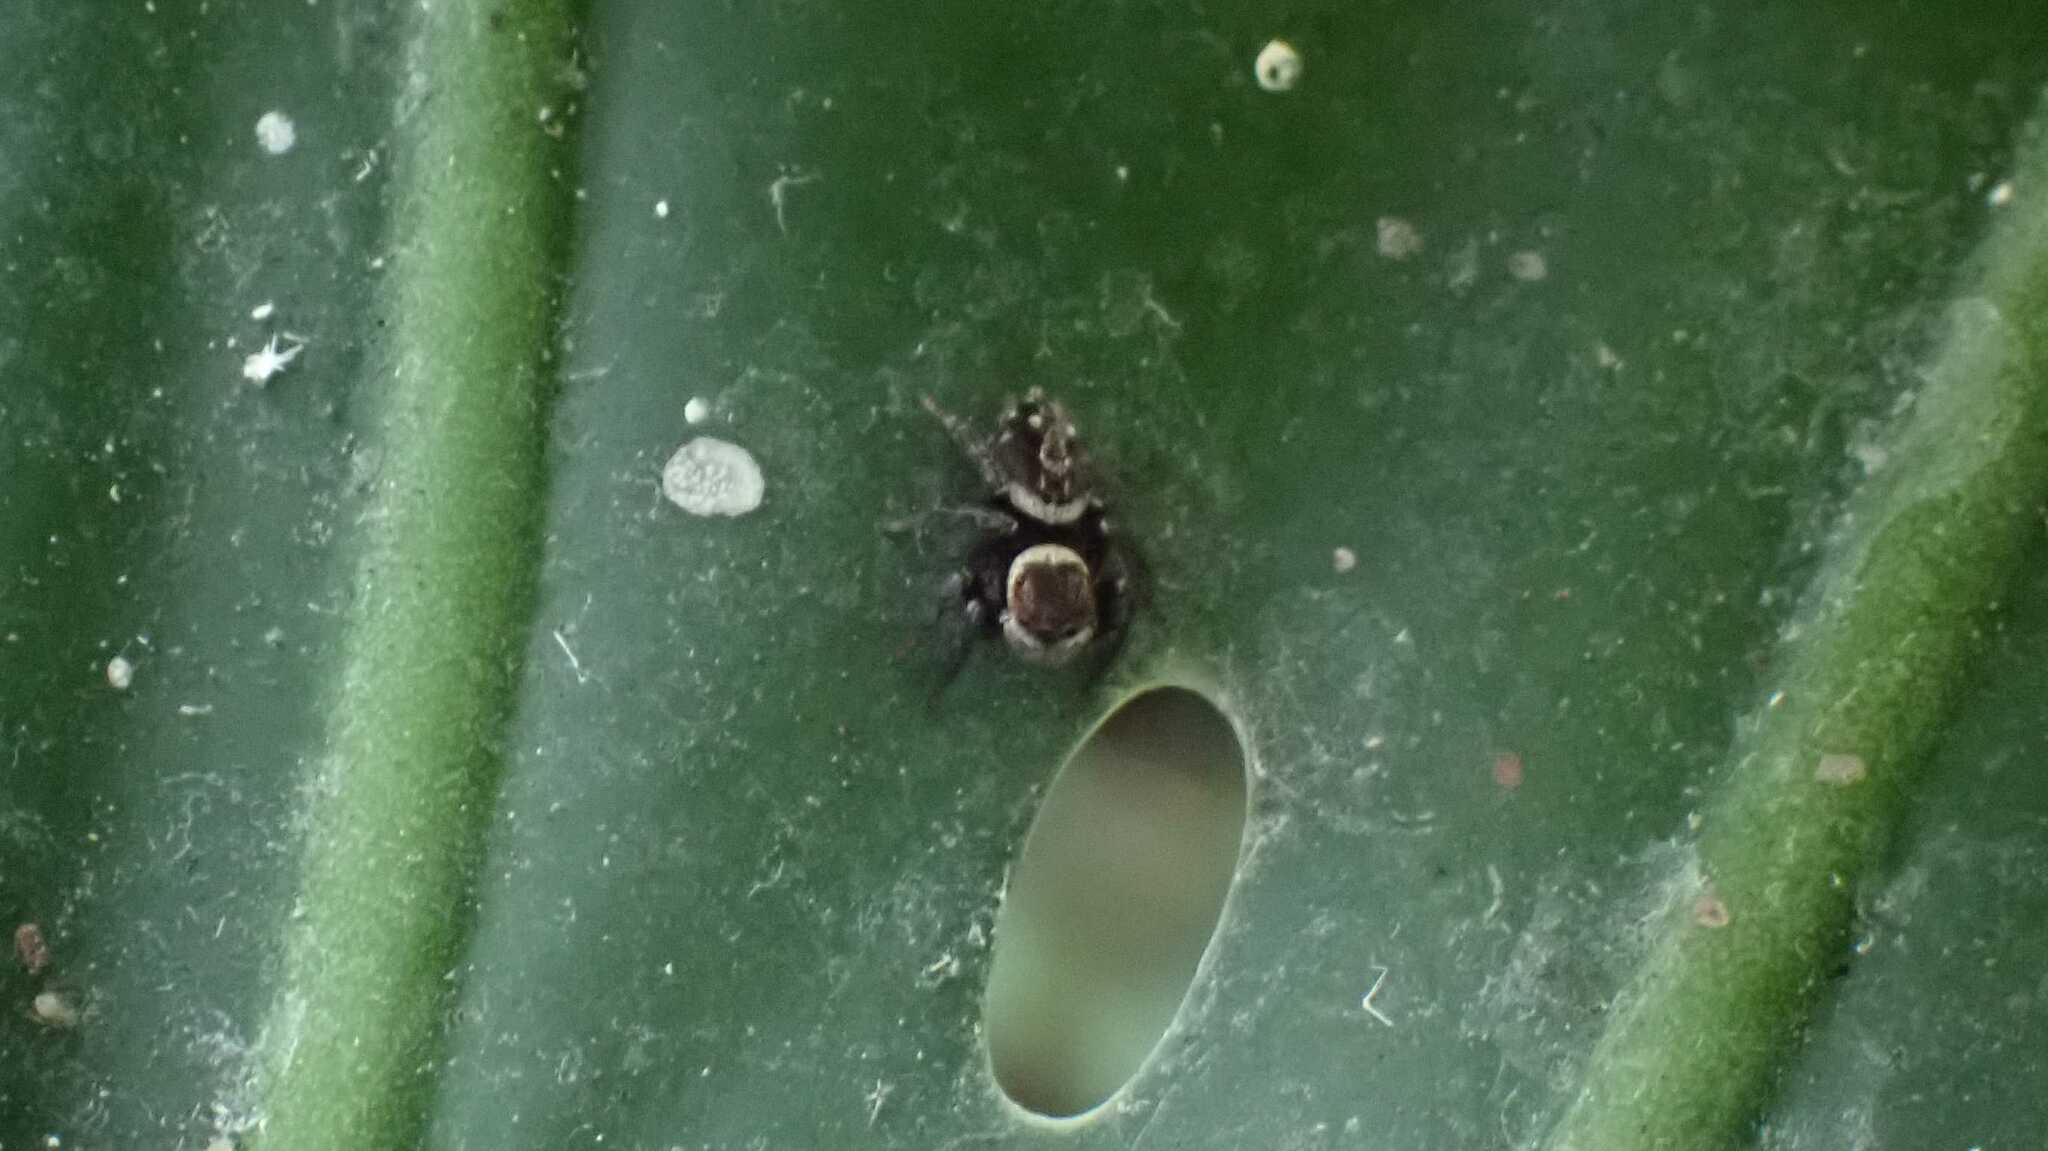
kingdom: Animalia
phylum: Arthropoda
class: Arachnida
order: Araneae
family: Salticidae
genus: Hasarius
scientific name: Hasarius adansoni
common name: Jumping spider
